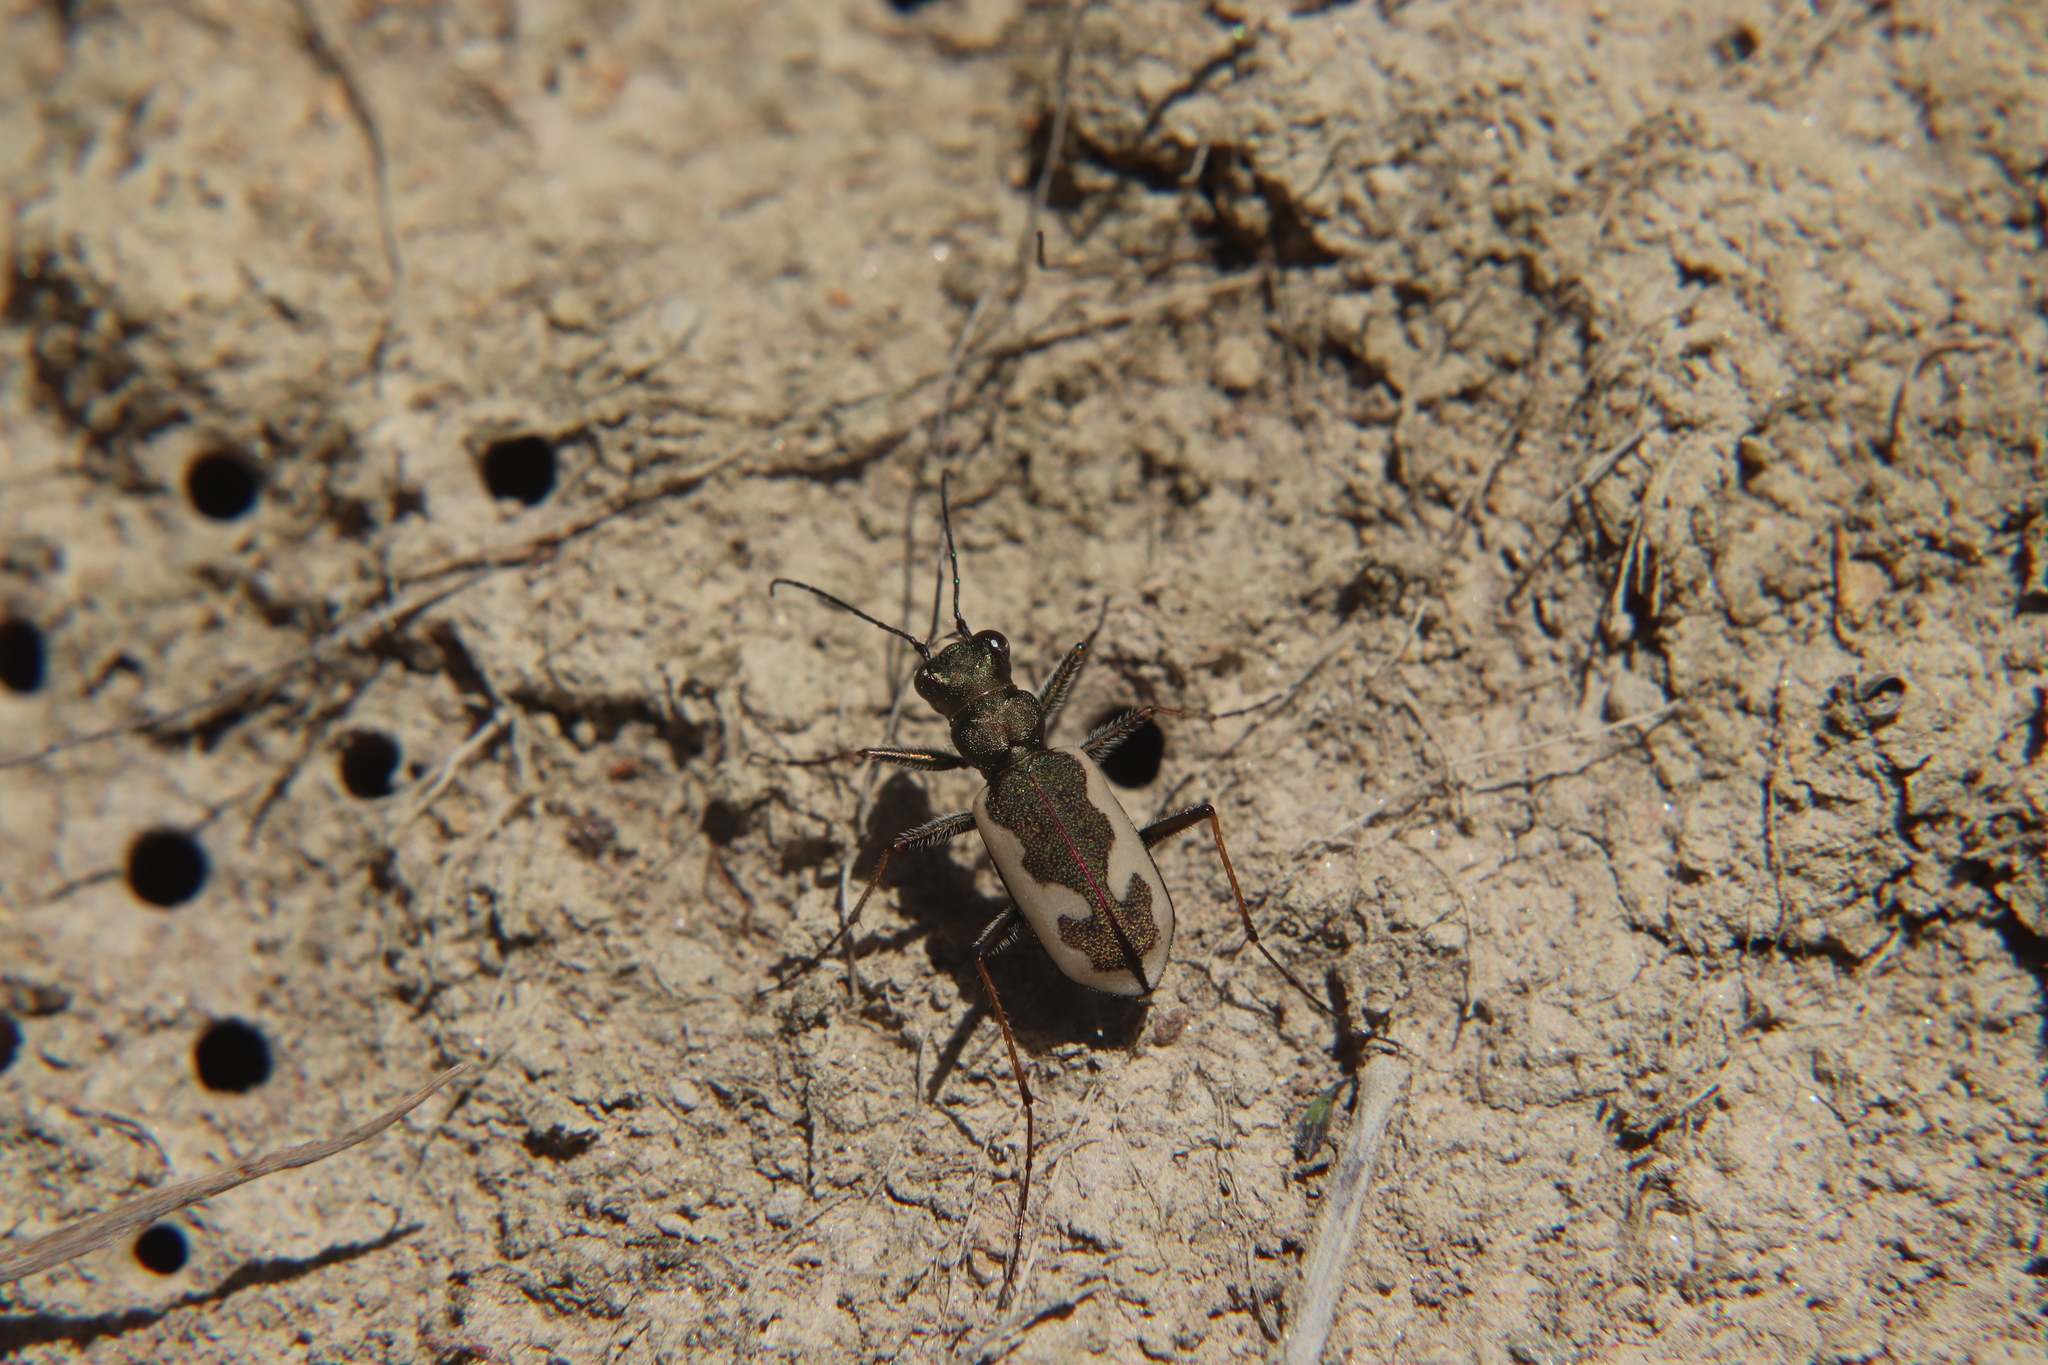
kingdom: Animalia
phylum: Arthropoda
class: Insecta
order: Coleoptera
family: Carabidae
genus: Neocicindela
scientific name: Neocicindela latecincta
